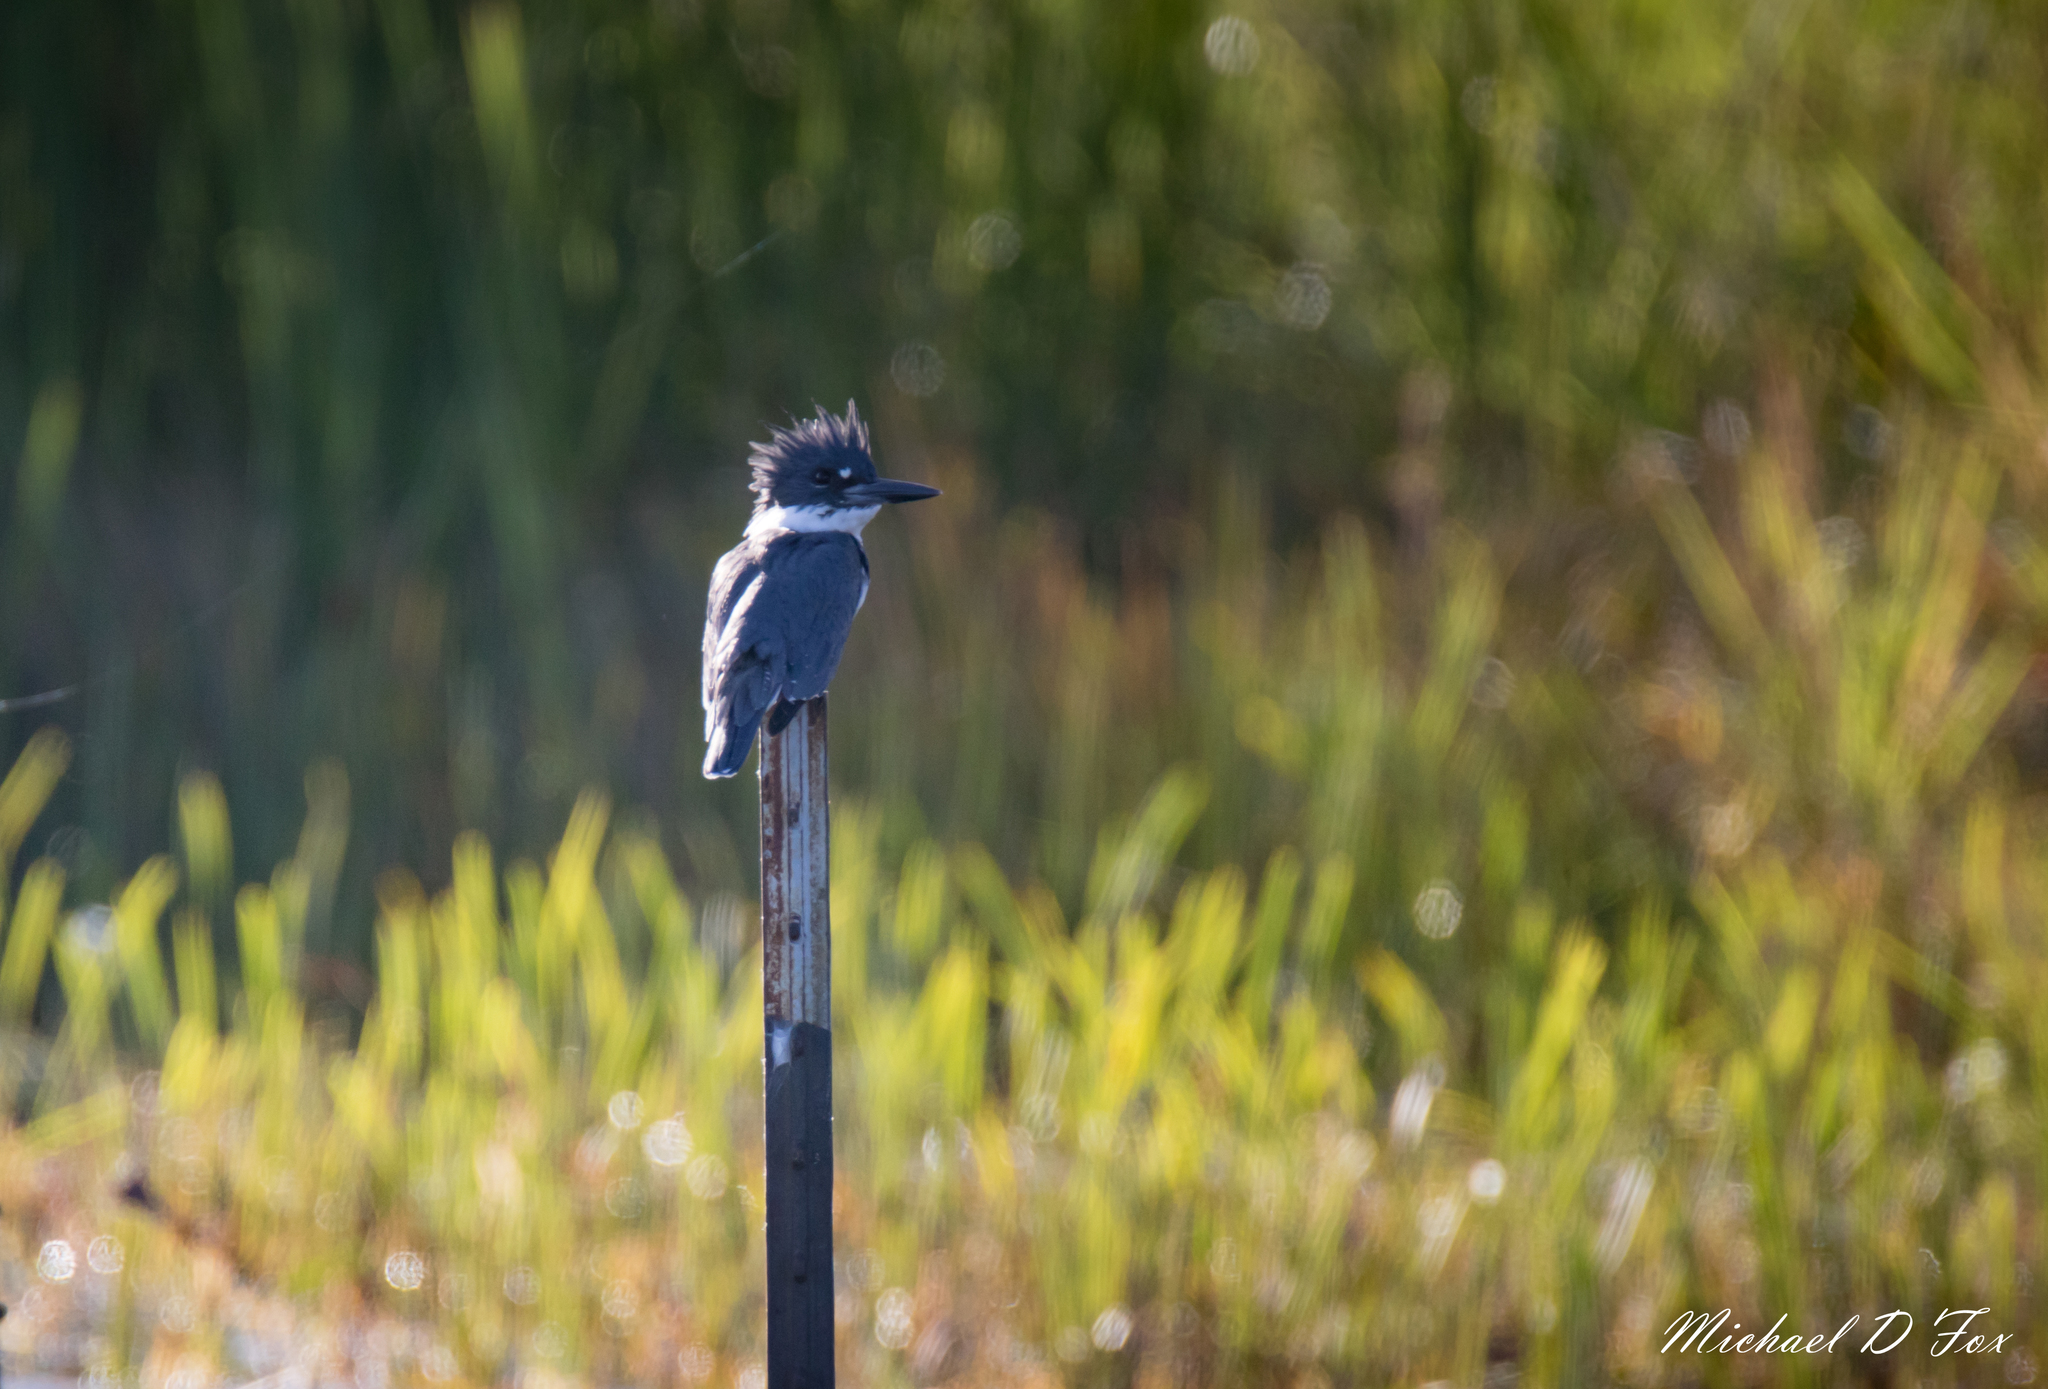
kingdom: Animalia
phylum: Chordata
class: Aves
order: Coraciiformes
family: Alcedinidae
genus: Megaceryle
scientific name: Megaceryle alcyon
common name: Belted kingfisher
